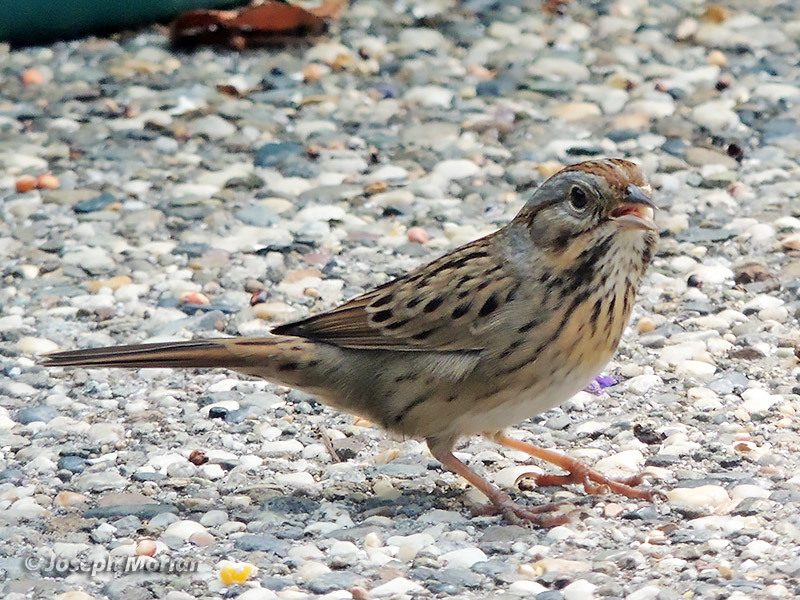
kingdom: Animalia
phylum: Chordata
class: Aves
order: Passeriformes
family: Passerellidae
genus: Melospiza
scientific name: Melospiza lincolnii
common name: Lincoln's sparrow
